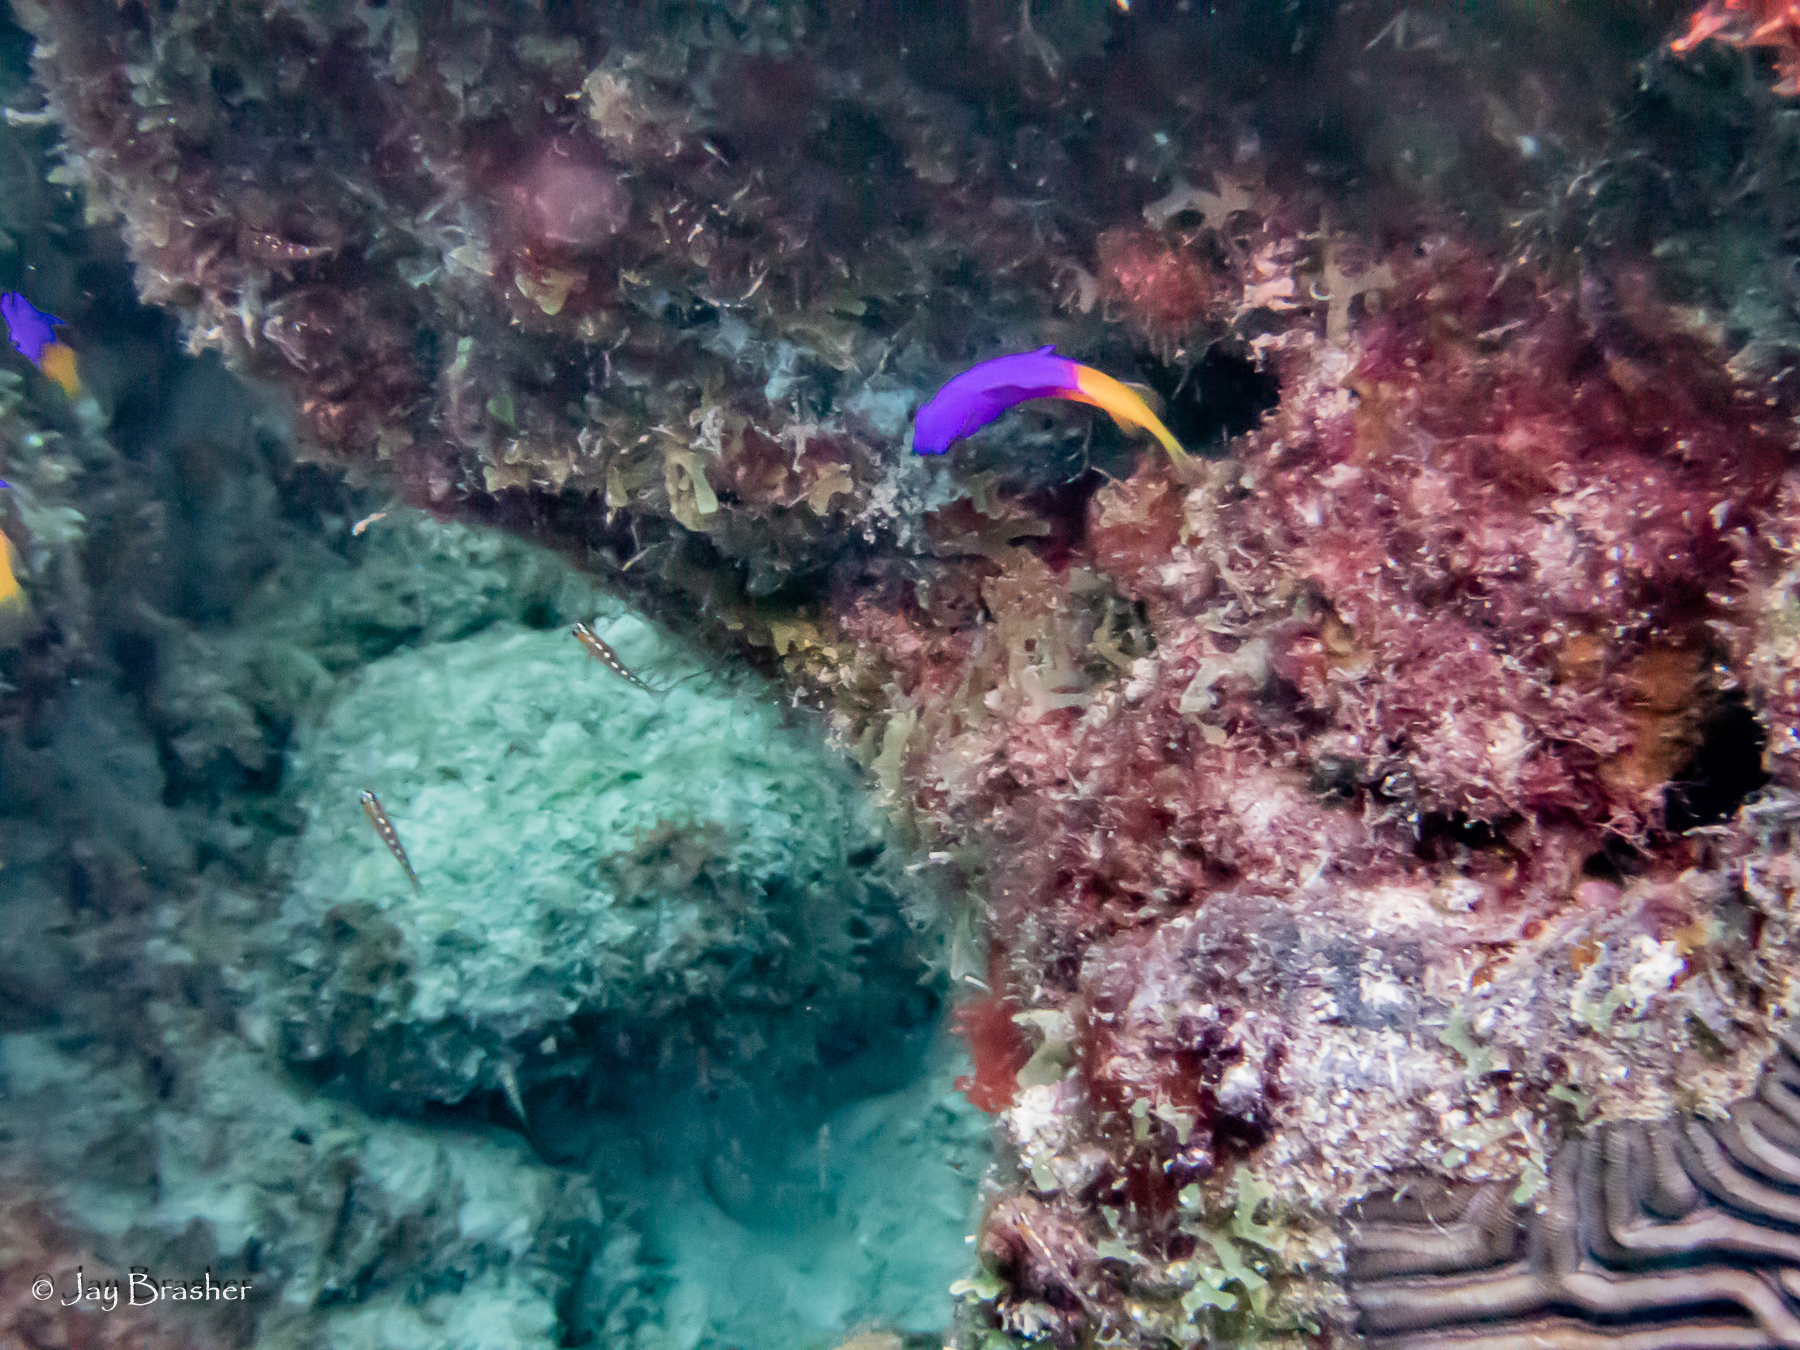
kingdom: Animalia
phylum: Chordata
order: Perciformes
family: Grammatidae
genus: Gramma
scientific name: Gramma loreto
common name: Fairy basslet
